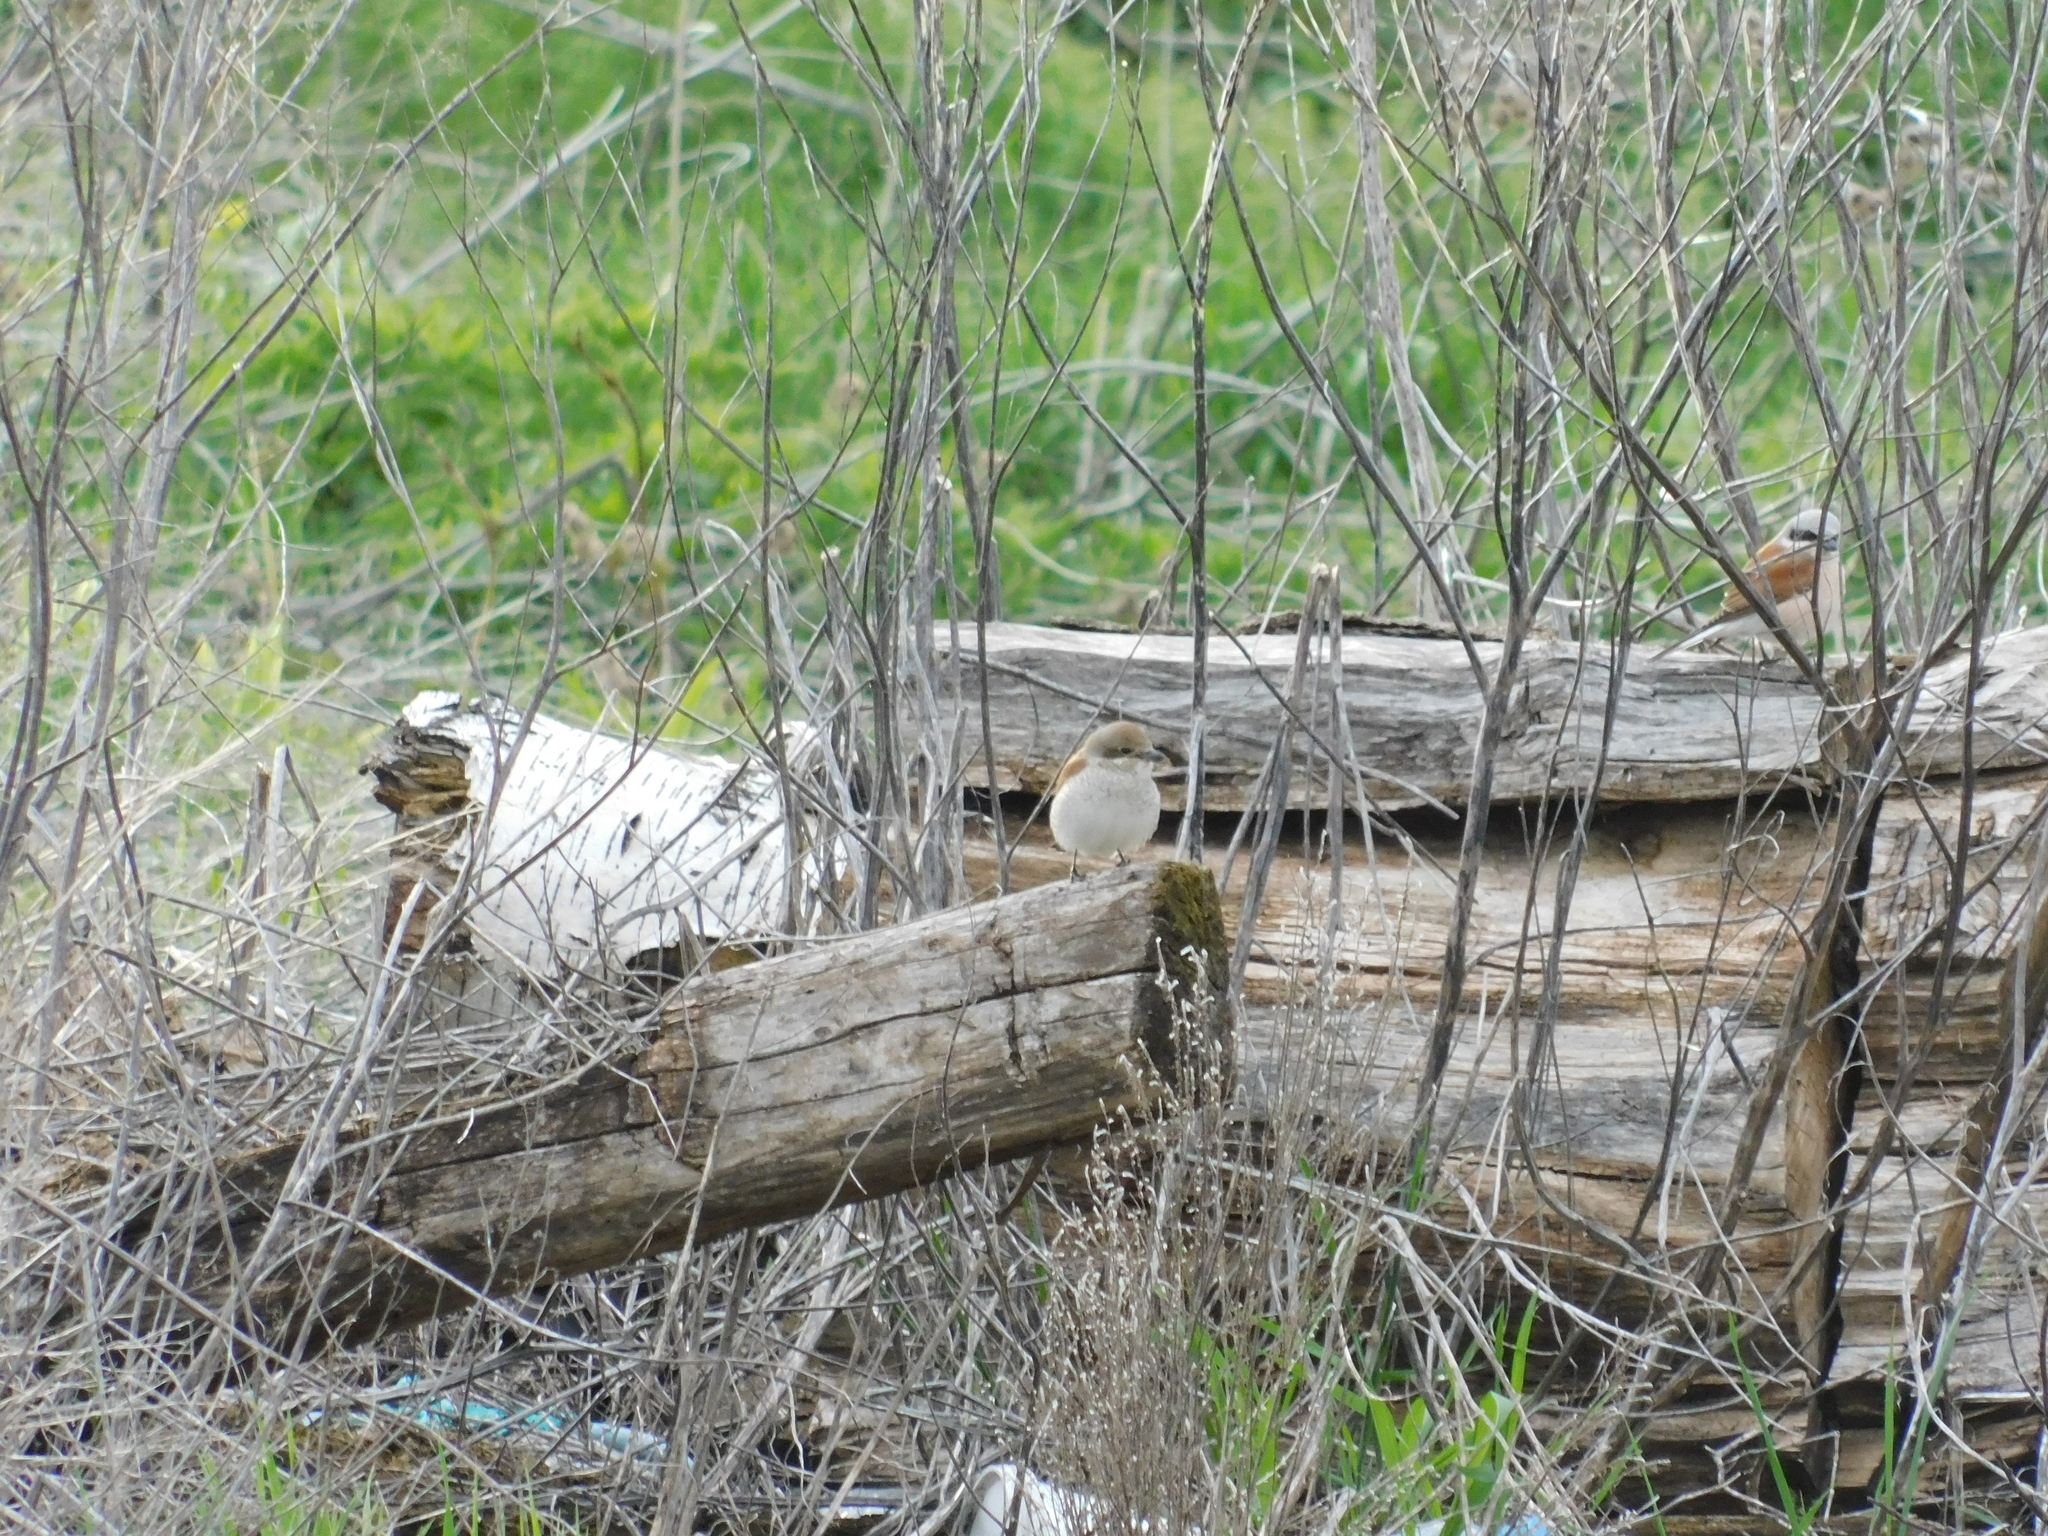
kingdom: Animalia
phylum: Chordata
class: Aves
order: Passeriformes
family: Laniidae
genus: Lanius
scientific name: Lanius collurio
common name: Red-backed shrike
